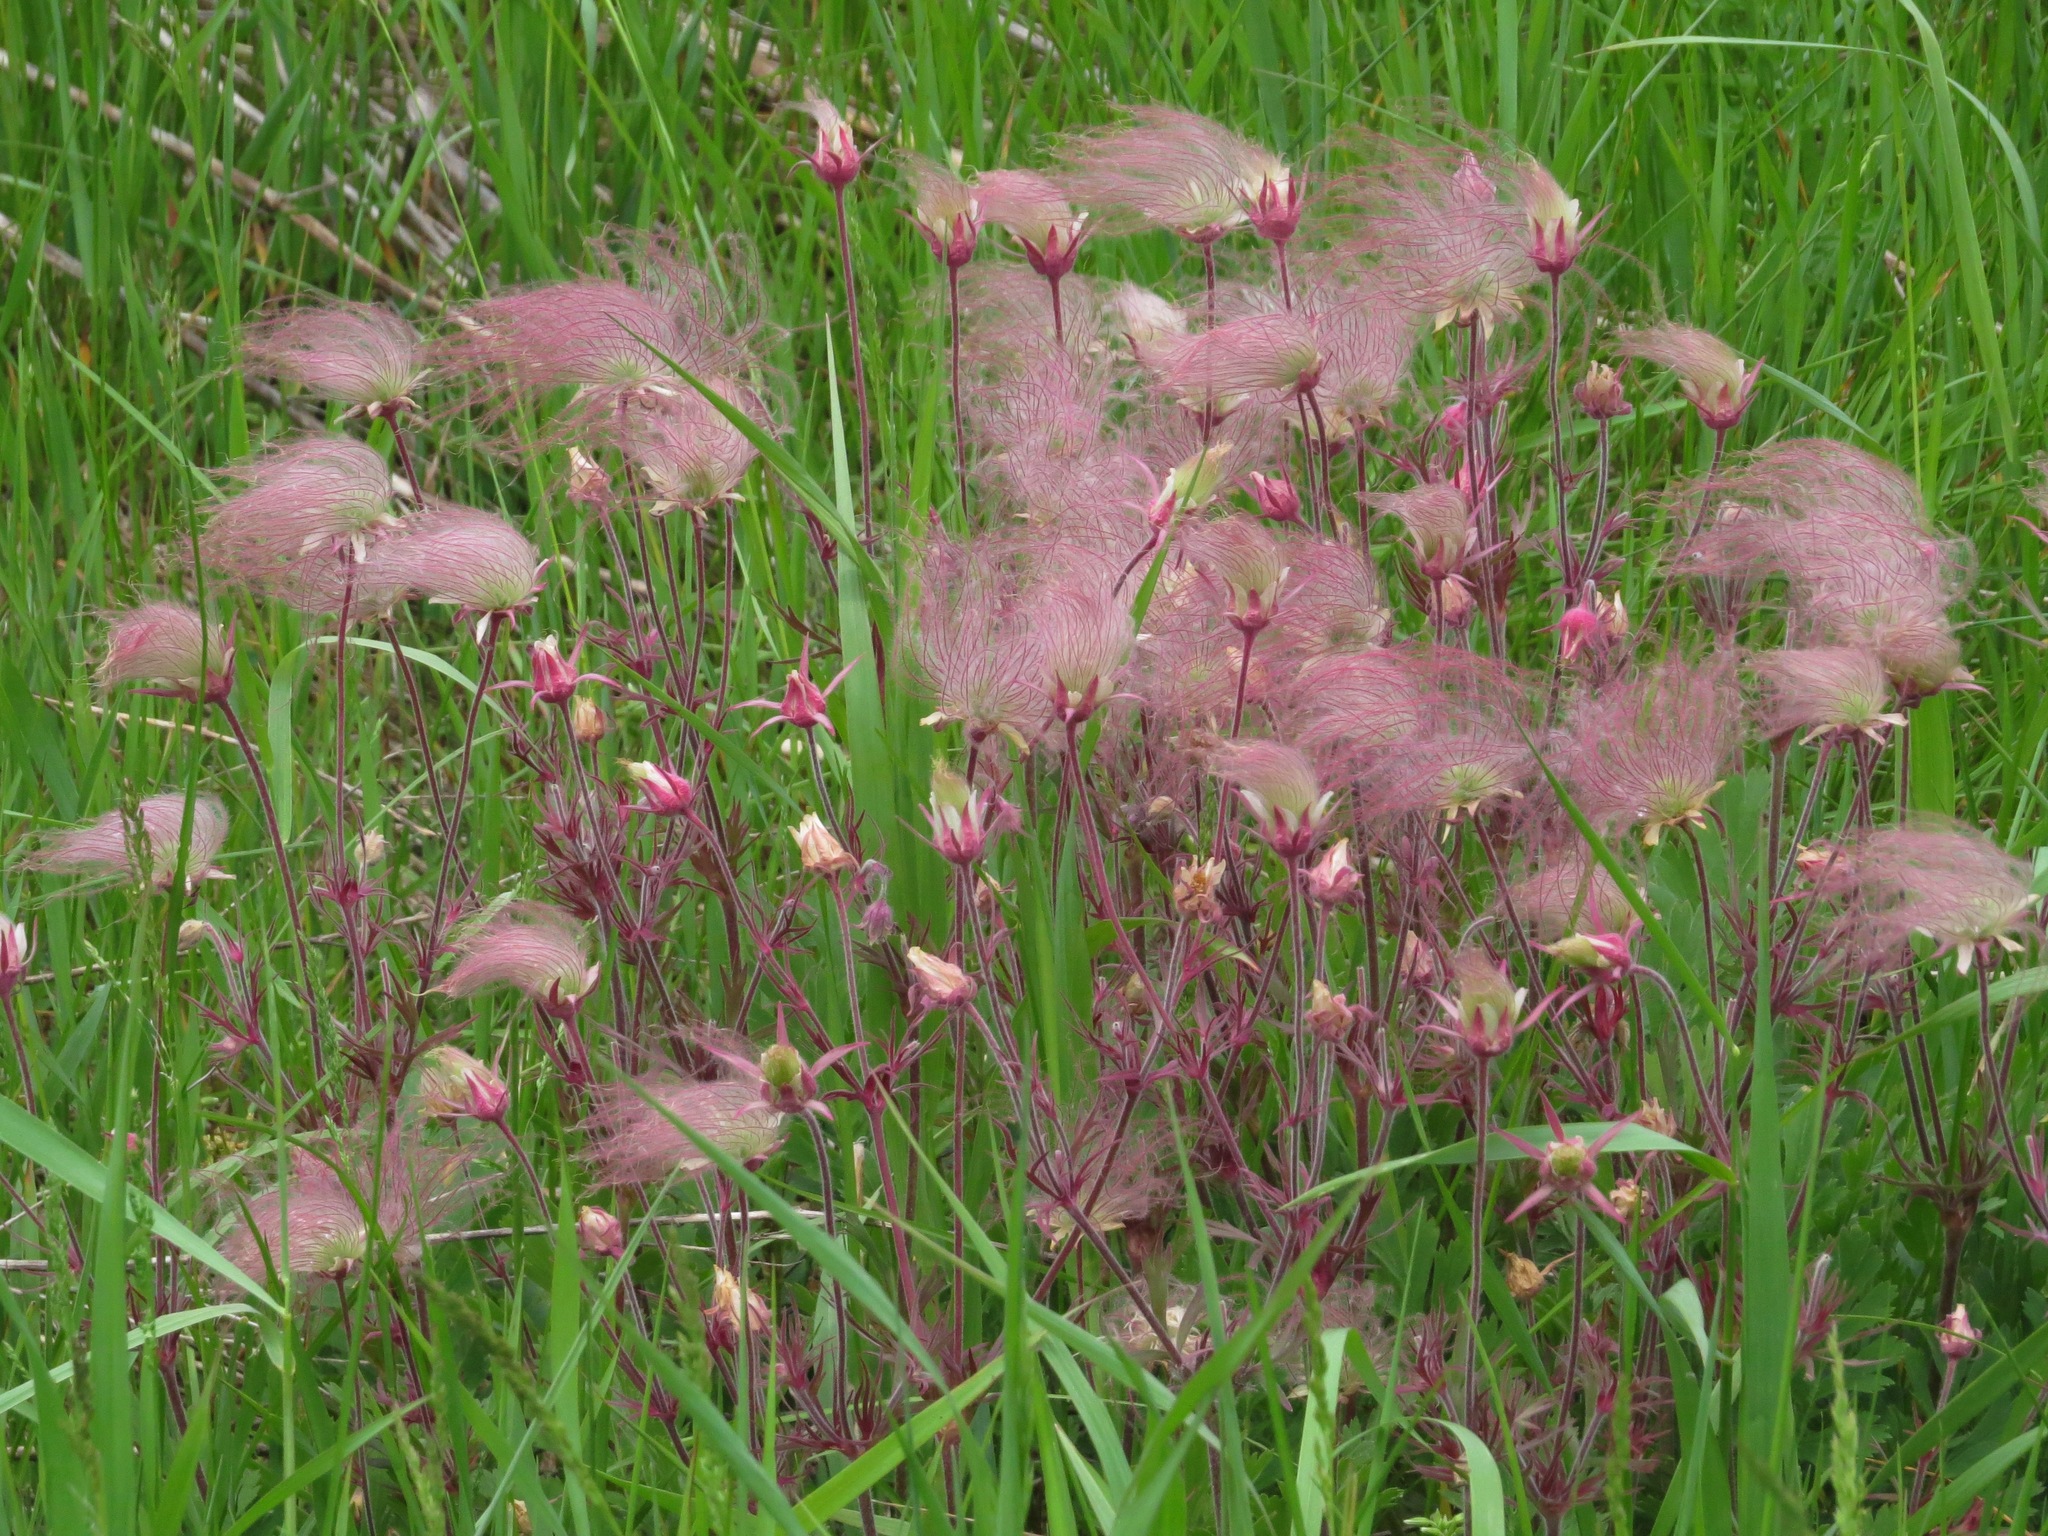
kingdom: Plantae
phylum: Tracheophyta
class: Magnoliopsida
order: Rosales
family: Rosaceae
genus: Geum
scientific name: Geum triflorum
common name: Old man's whiskers
